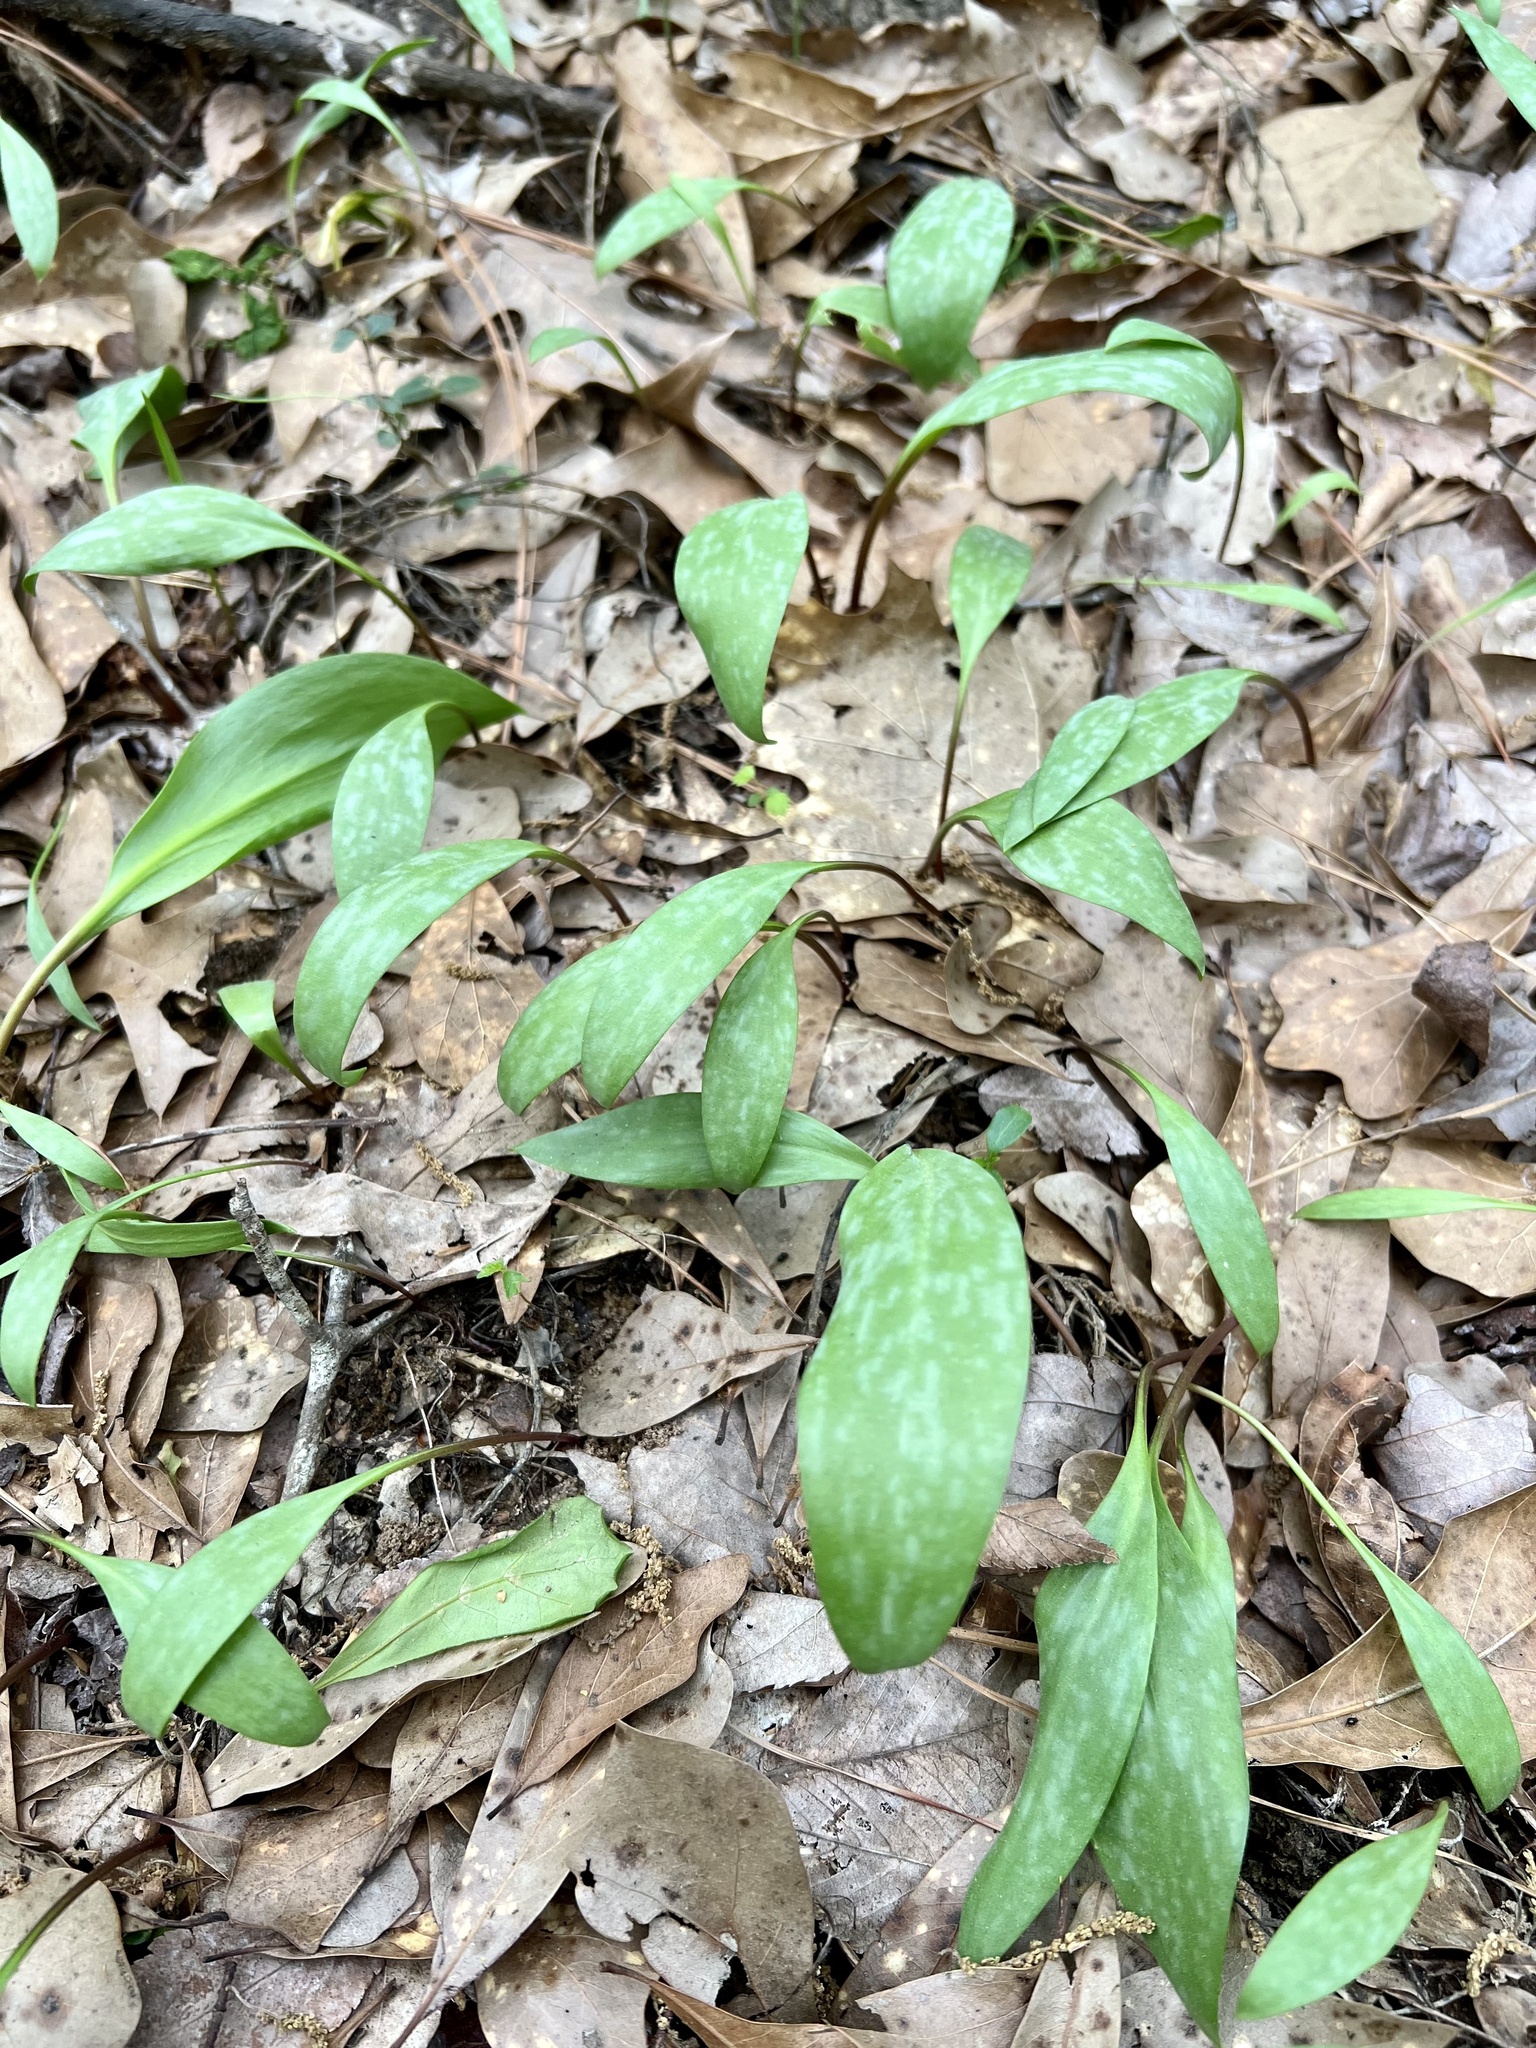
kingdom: Plantae
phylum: Tracheophyta
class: Liliopsida
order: Liliales
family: Liliaceae
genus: Erythronium
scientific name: Erythronium rostratum
